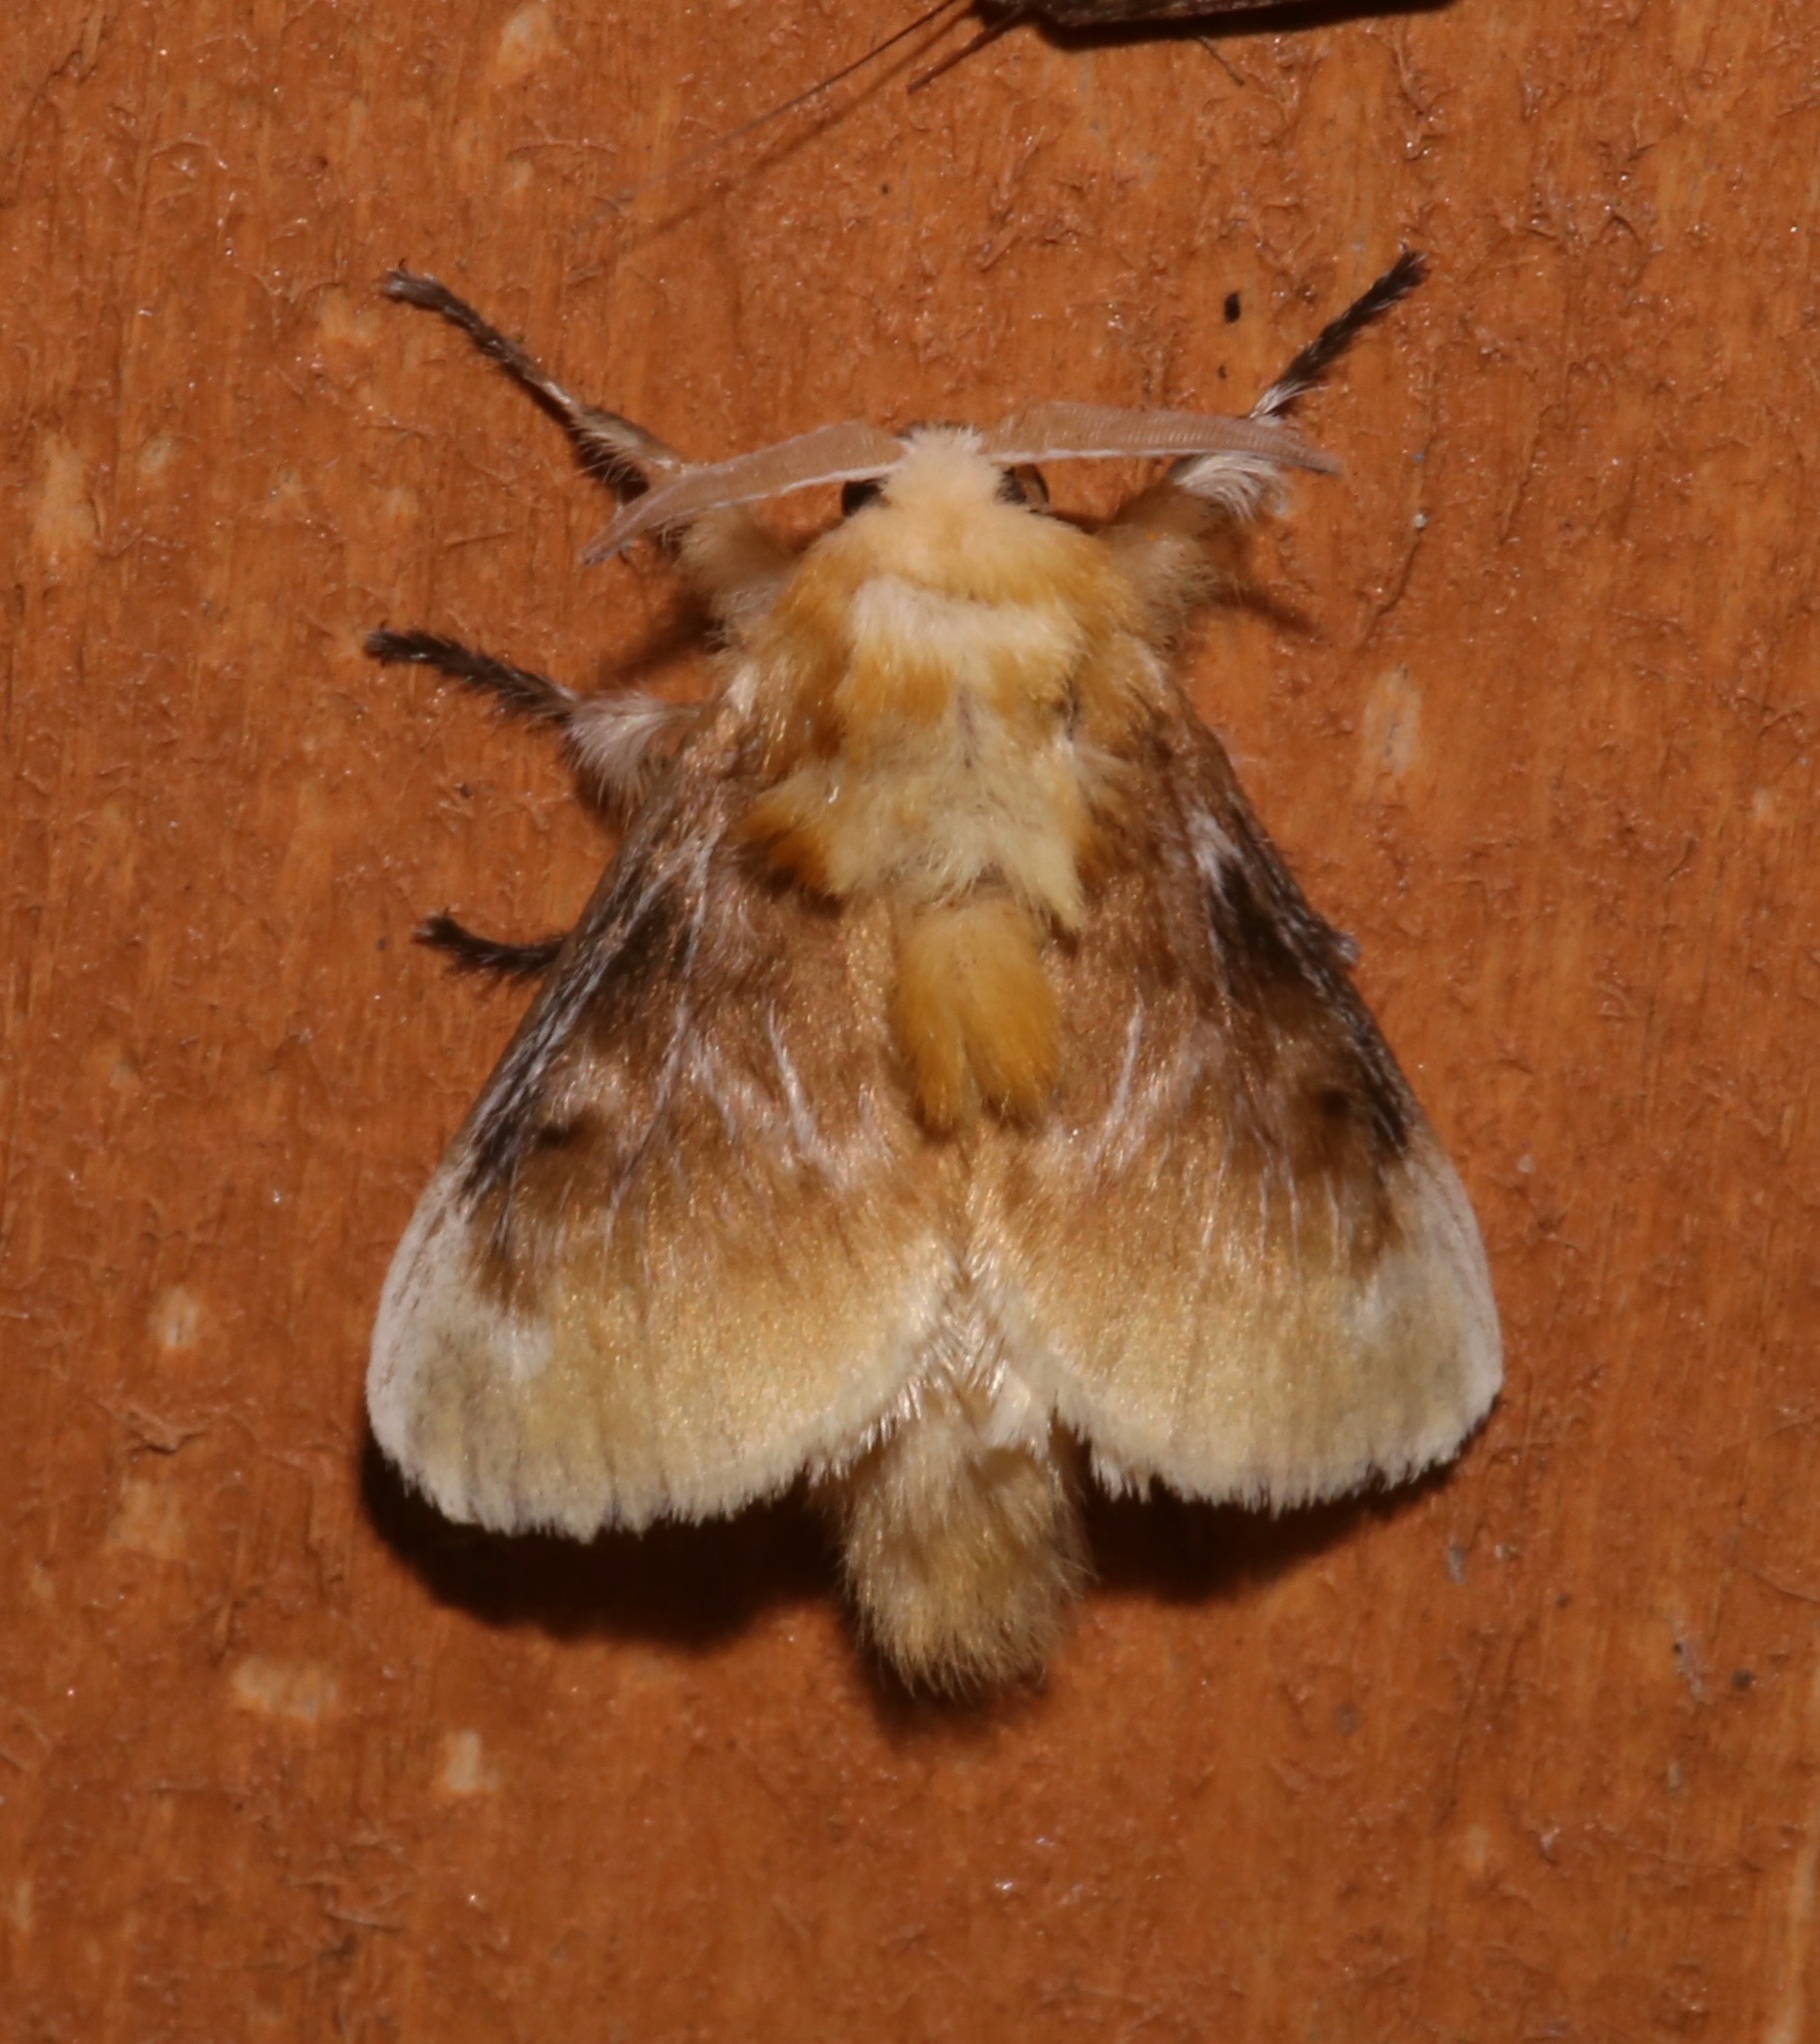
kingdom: Animalia
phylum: Arthropoda
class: Insecta
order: Lepidoptera
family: Megalopygidae
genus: Megalopyge
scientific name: Megalopyge opercularis
